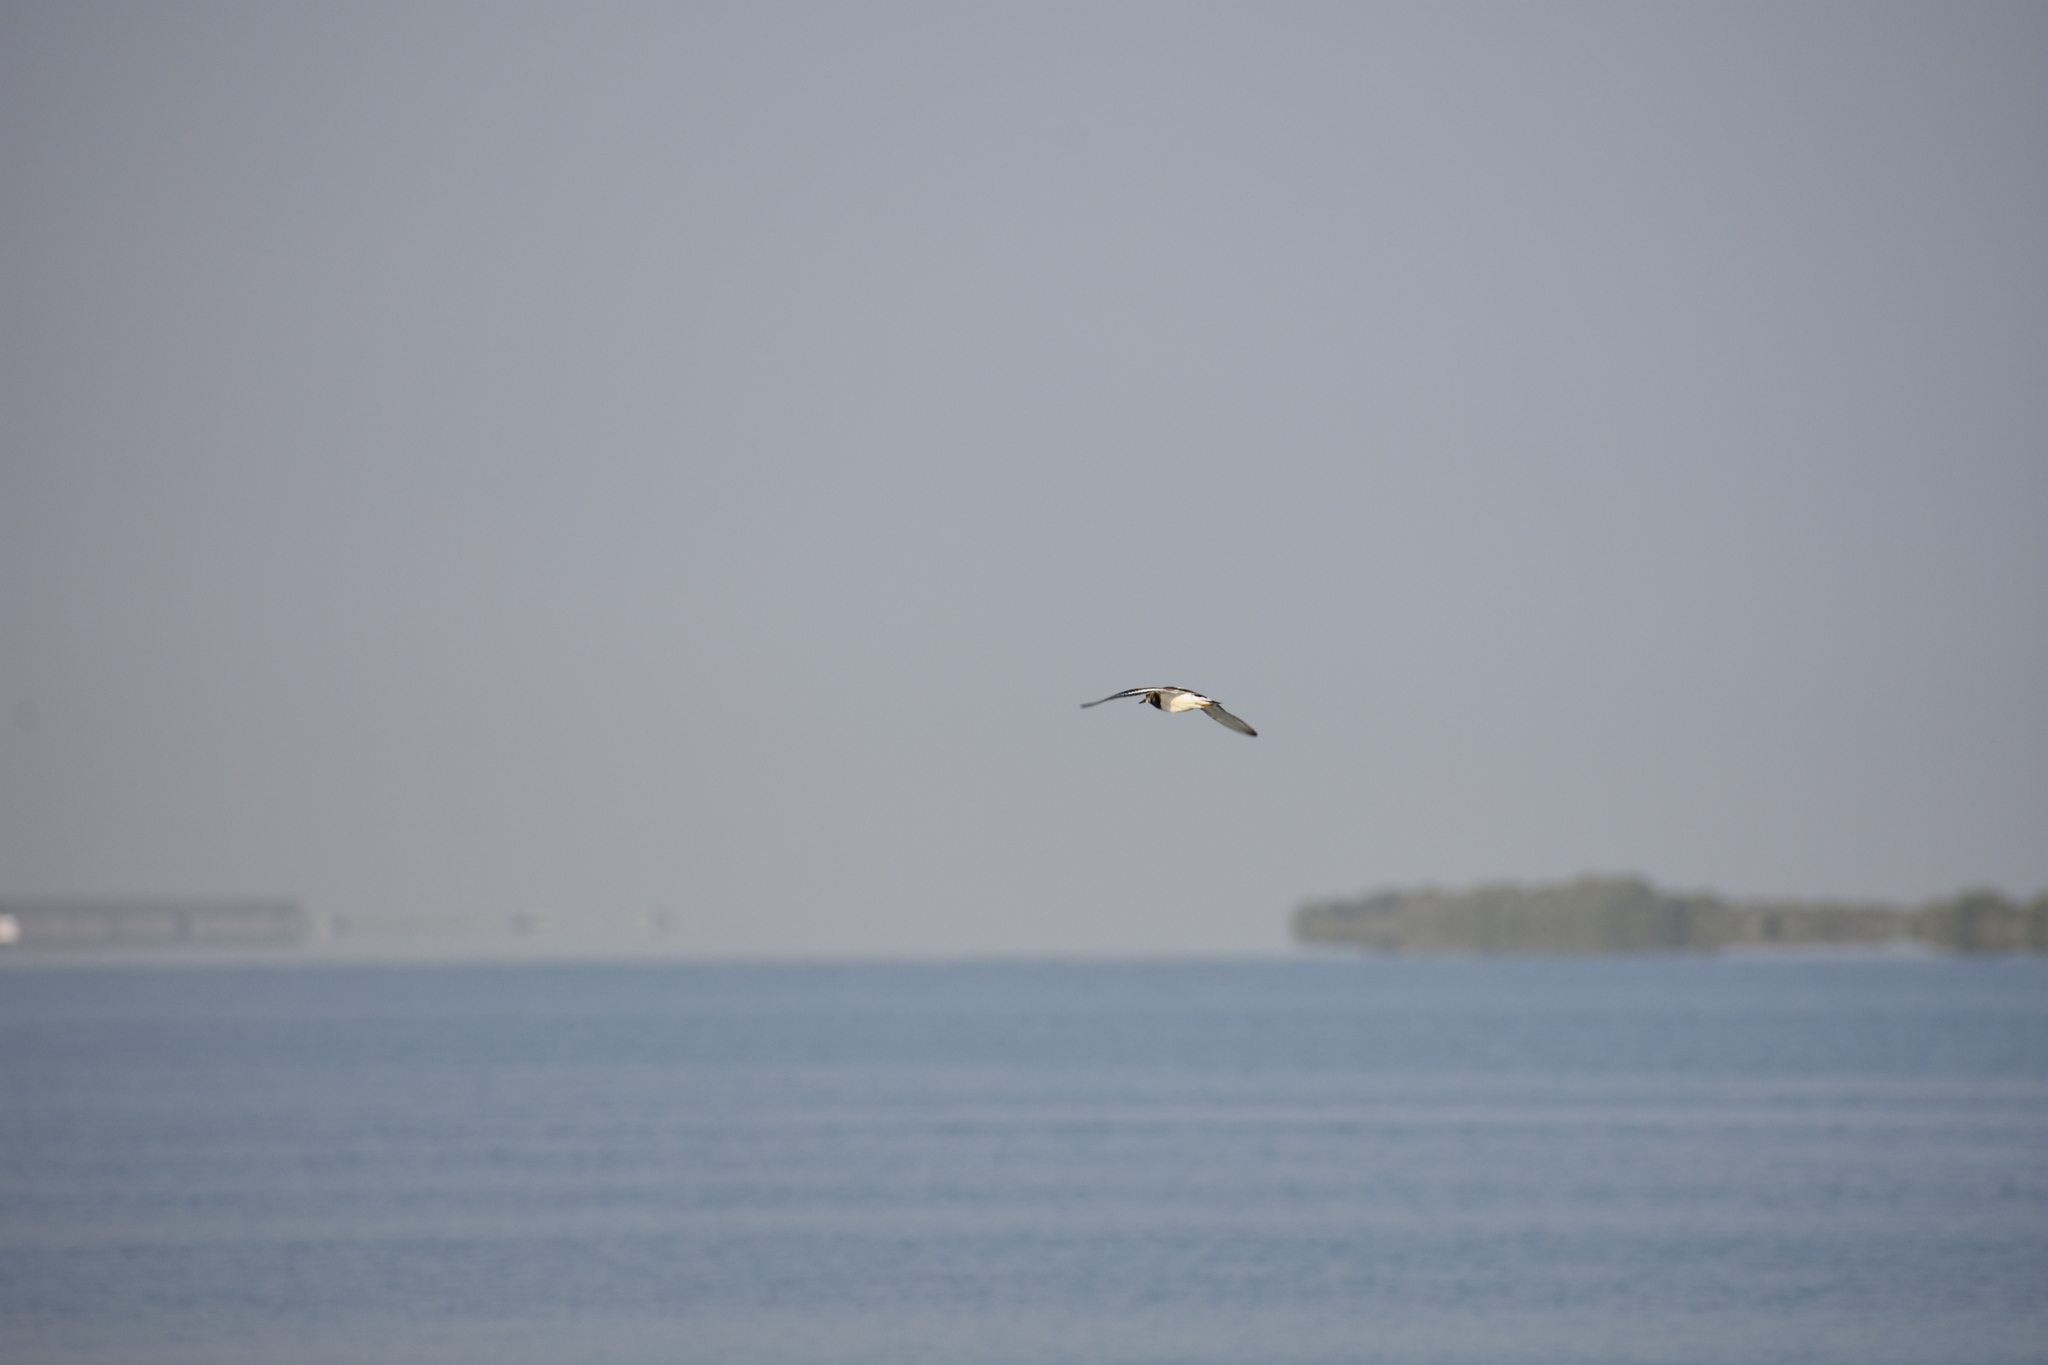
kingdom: Animalia
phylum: Chordata
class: Aves
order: Charadriiformes
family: Scolopacidae
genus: Arenaria
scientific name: Arenaria interpres
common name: Ruddy turnstone
